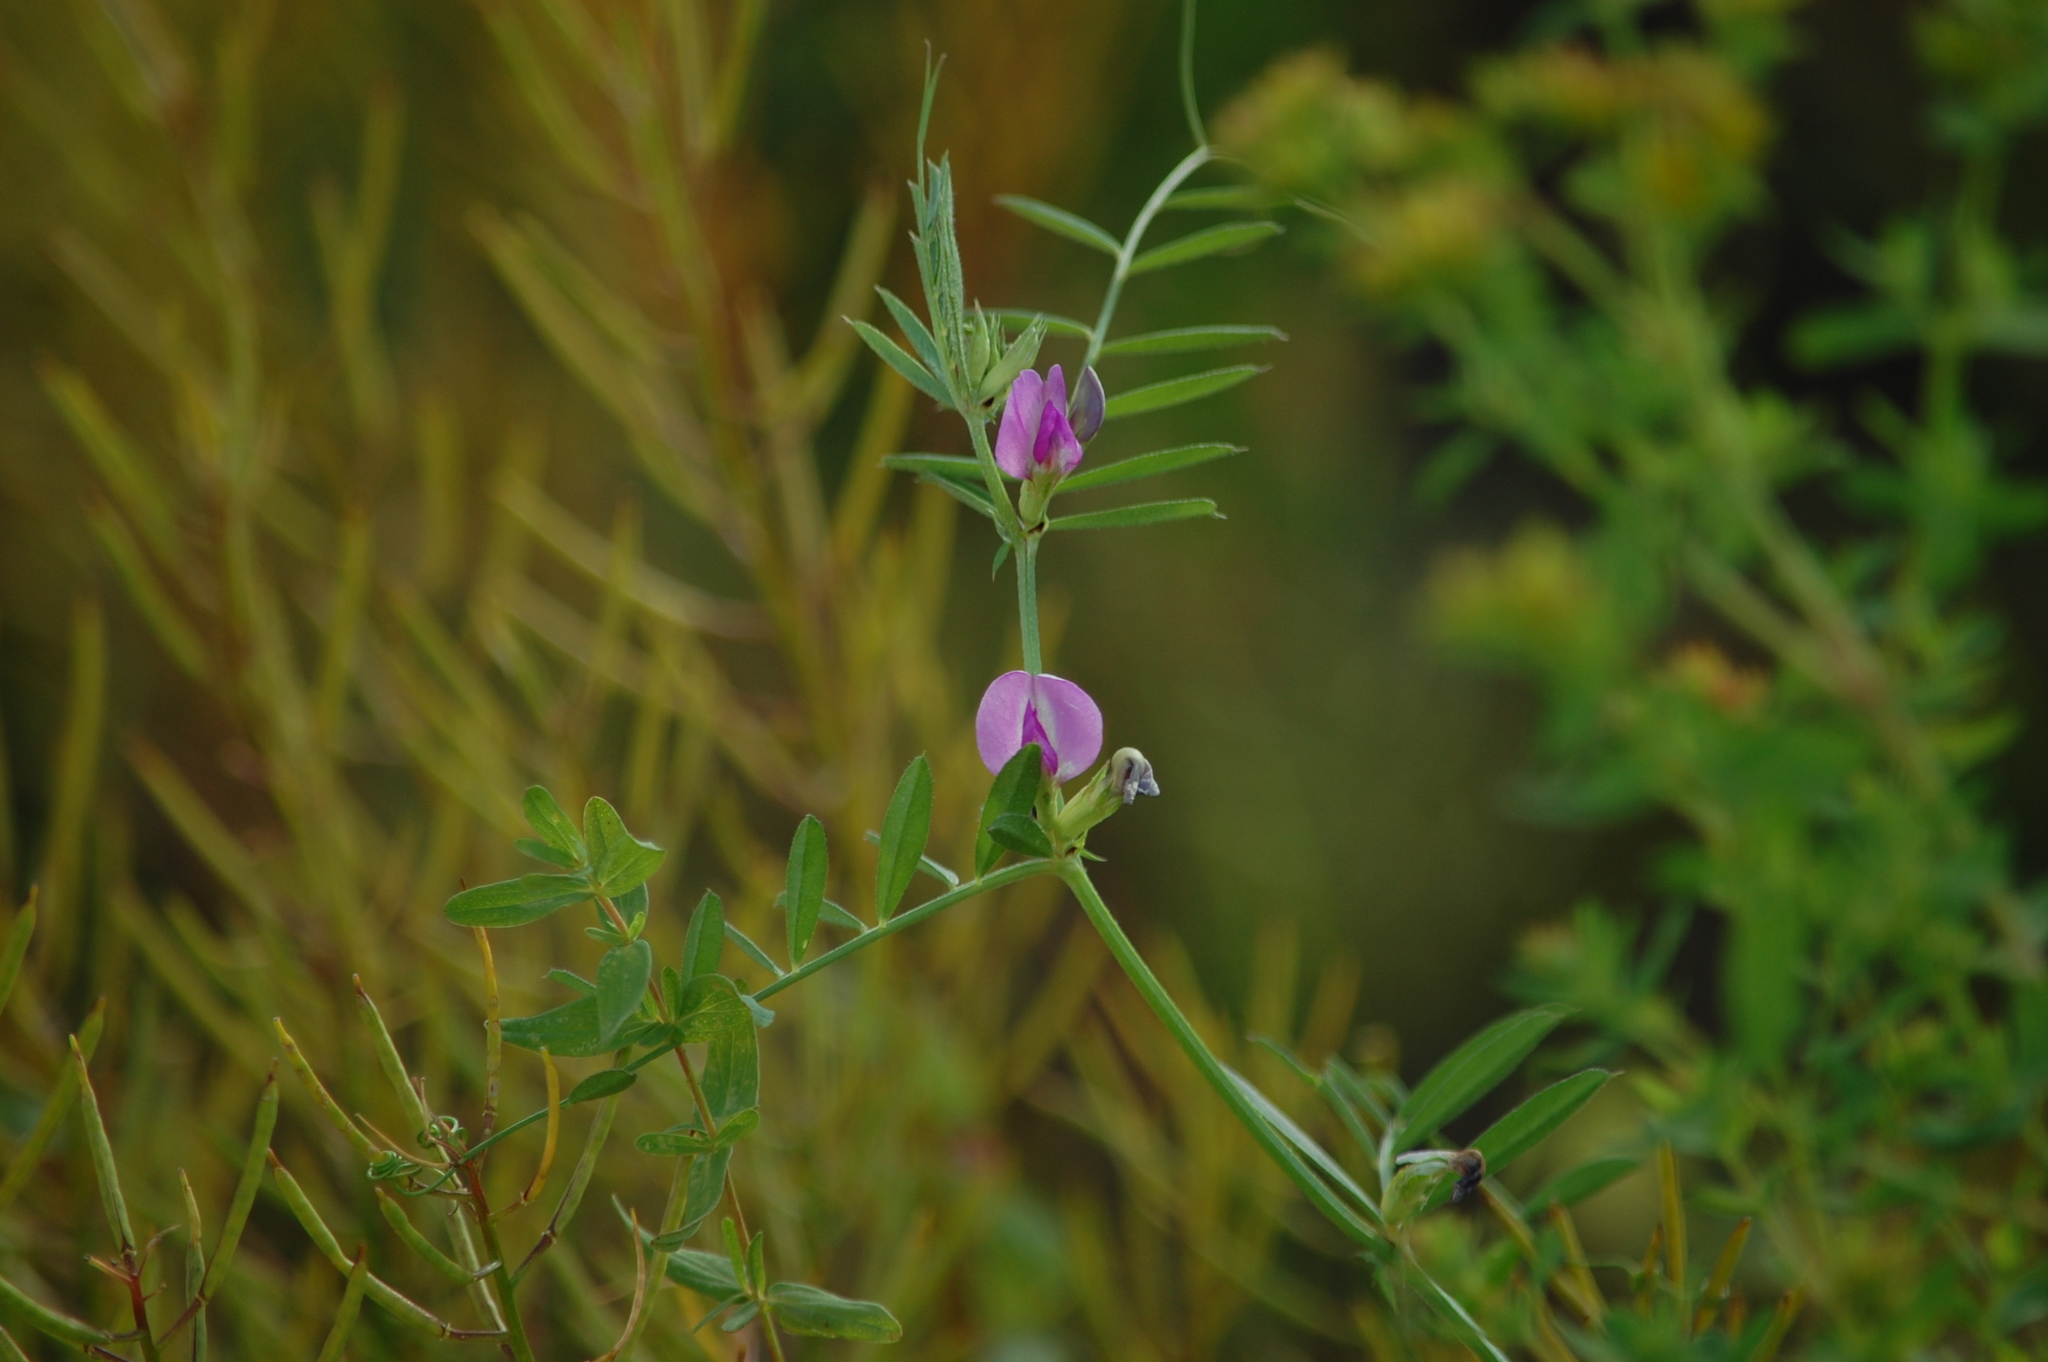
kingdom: Plantae
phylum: Tracheophyta
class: Magnoliopsida
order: Fabales
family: Fabaceae
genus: Vicia
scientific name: Vicia sativa
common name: Garden vetch
